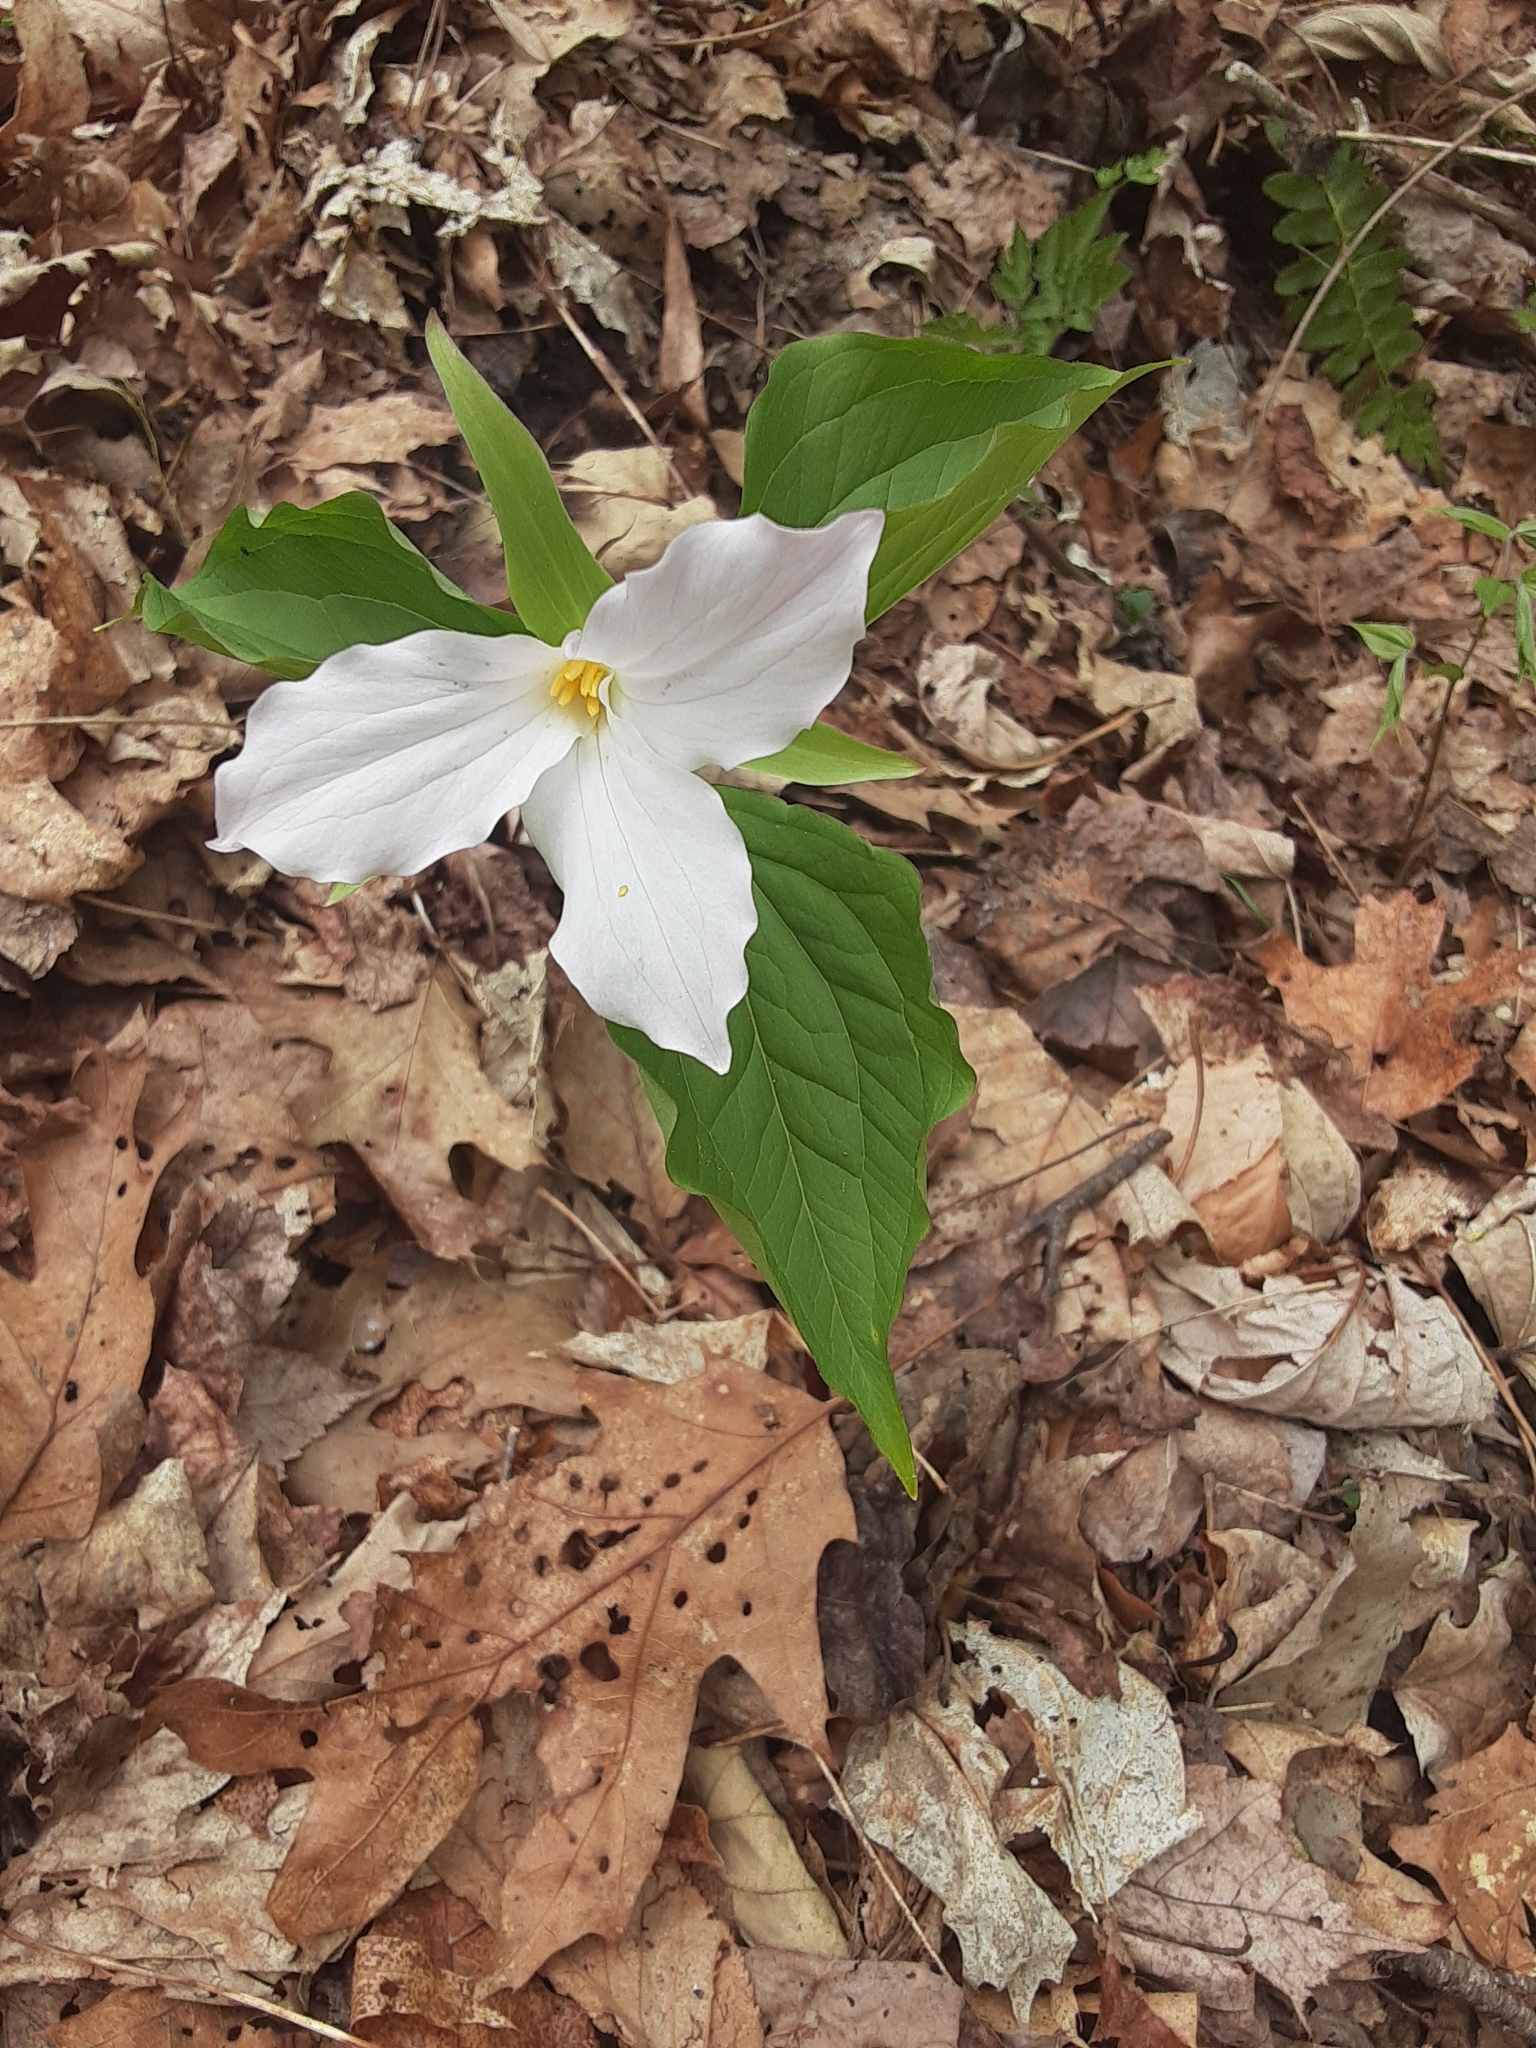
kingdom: Plantae
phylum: Tracheophyta
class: Liliopsida
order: Liliales
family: Melanthiaceae
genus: Trillium
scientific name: Trillium grandiflorum
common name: Great white trillium
